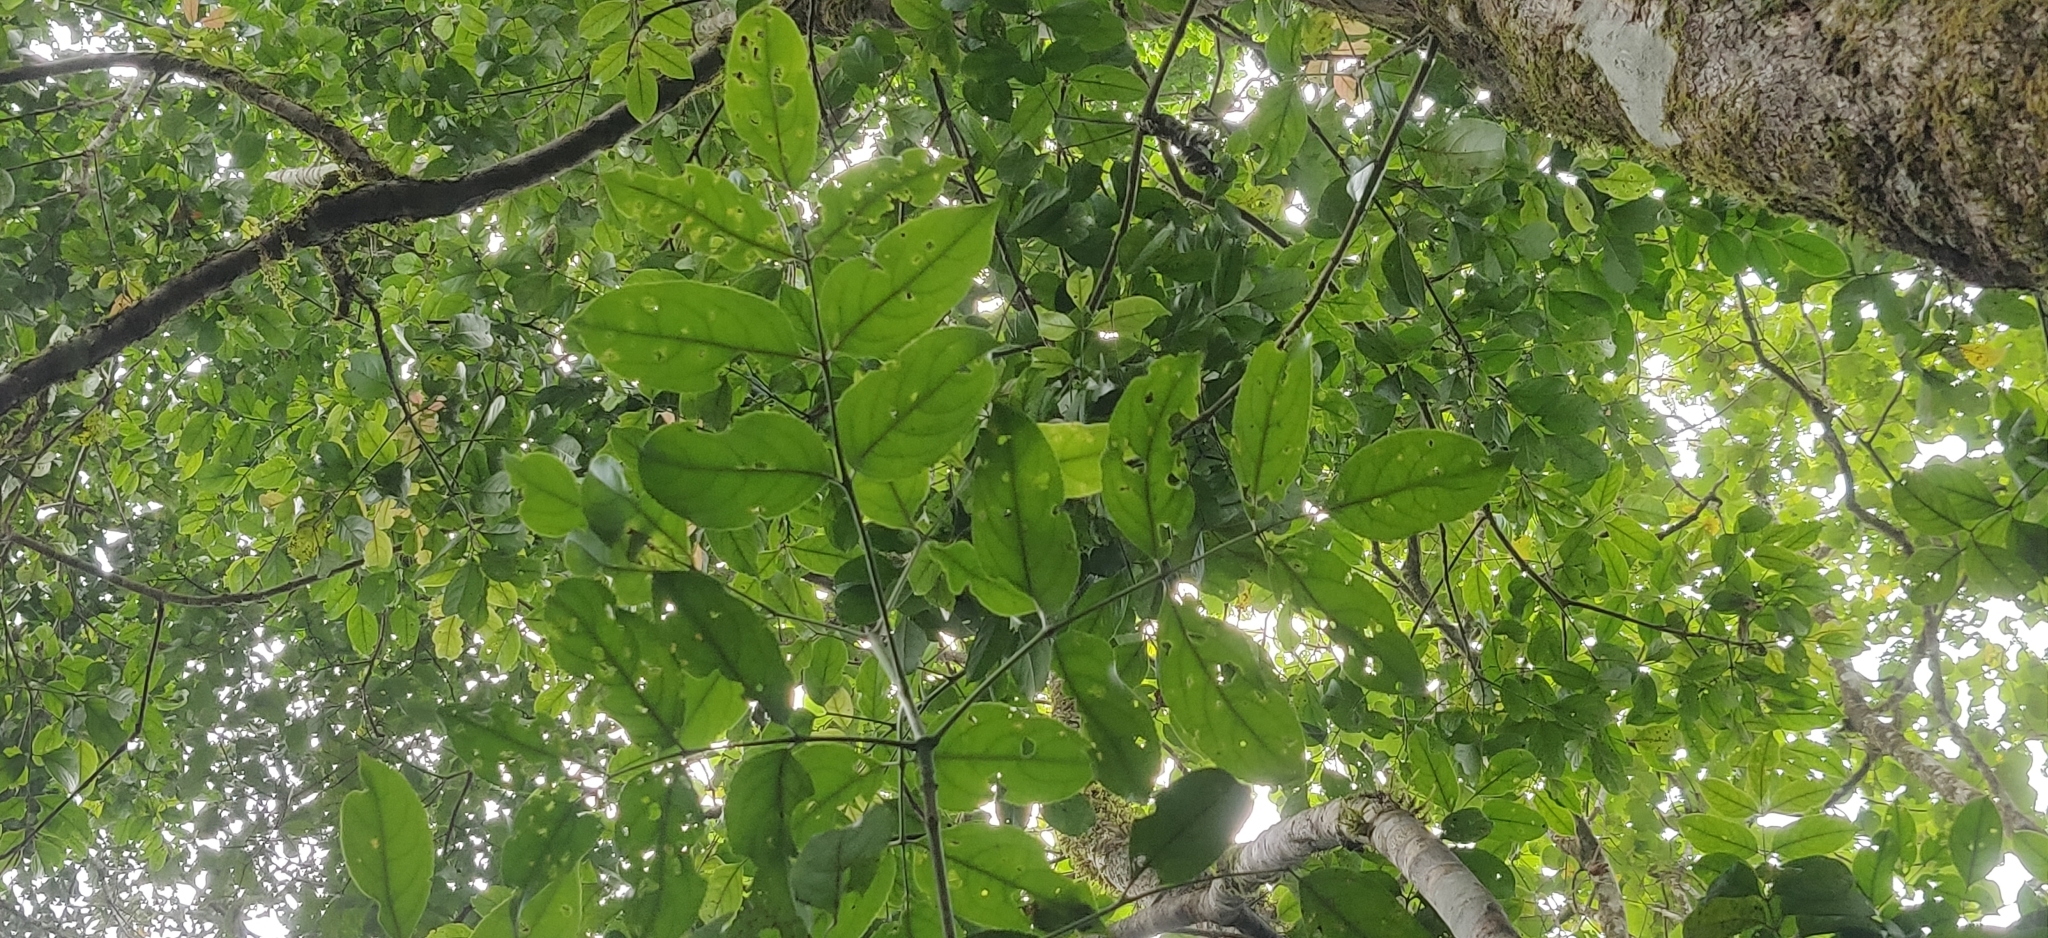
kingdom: Plantae
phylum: Tracheophyta
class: Magnoliopsida
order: Crossosomatales
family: Staphyleaceae
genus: Staphylea
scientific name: Staphylea
